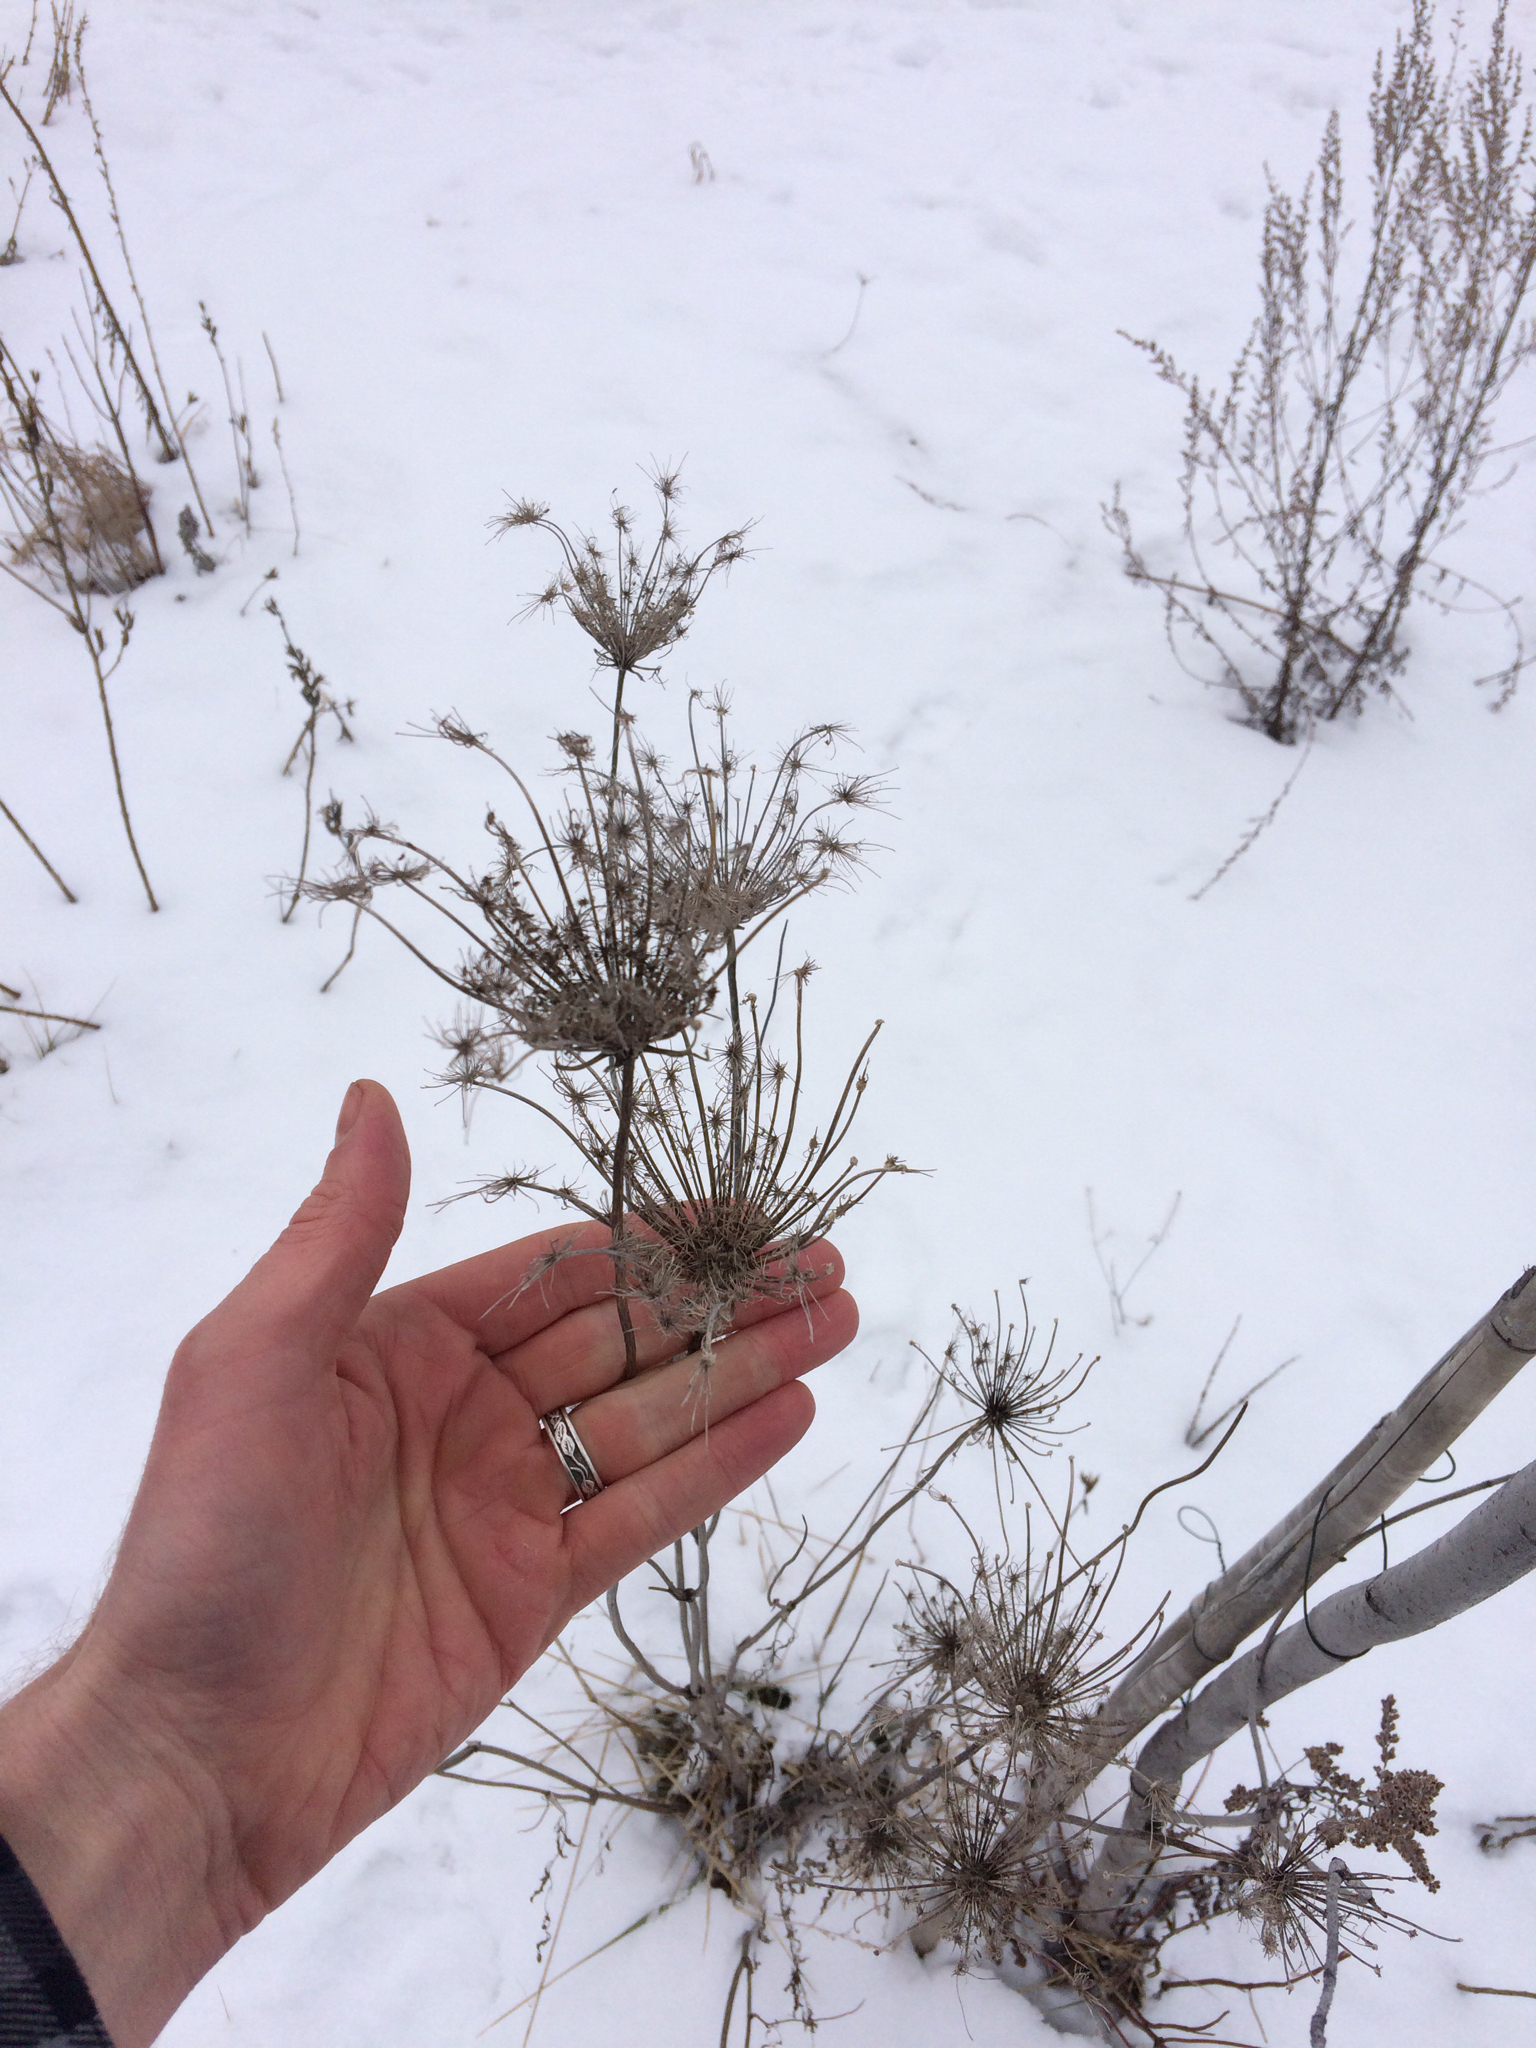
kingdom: Plantae
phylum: Tracheophyta
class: Magnoliopsida
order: Apiales
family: Apiaceae
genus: Daucus
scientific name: Daucus carota
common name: Wild carrot
